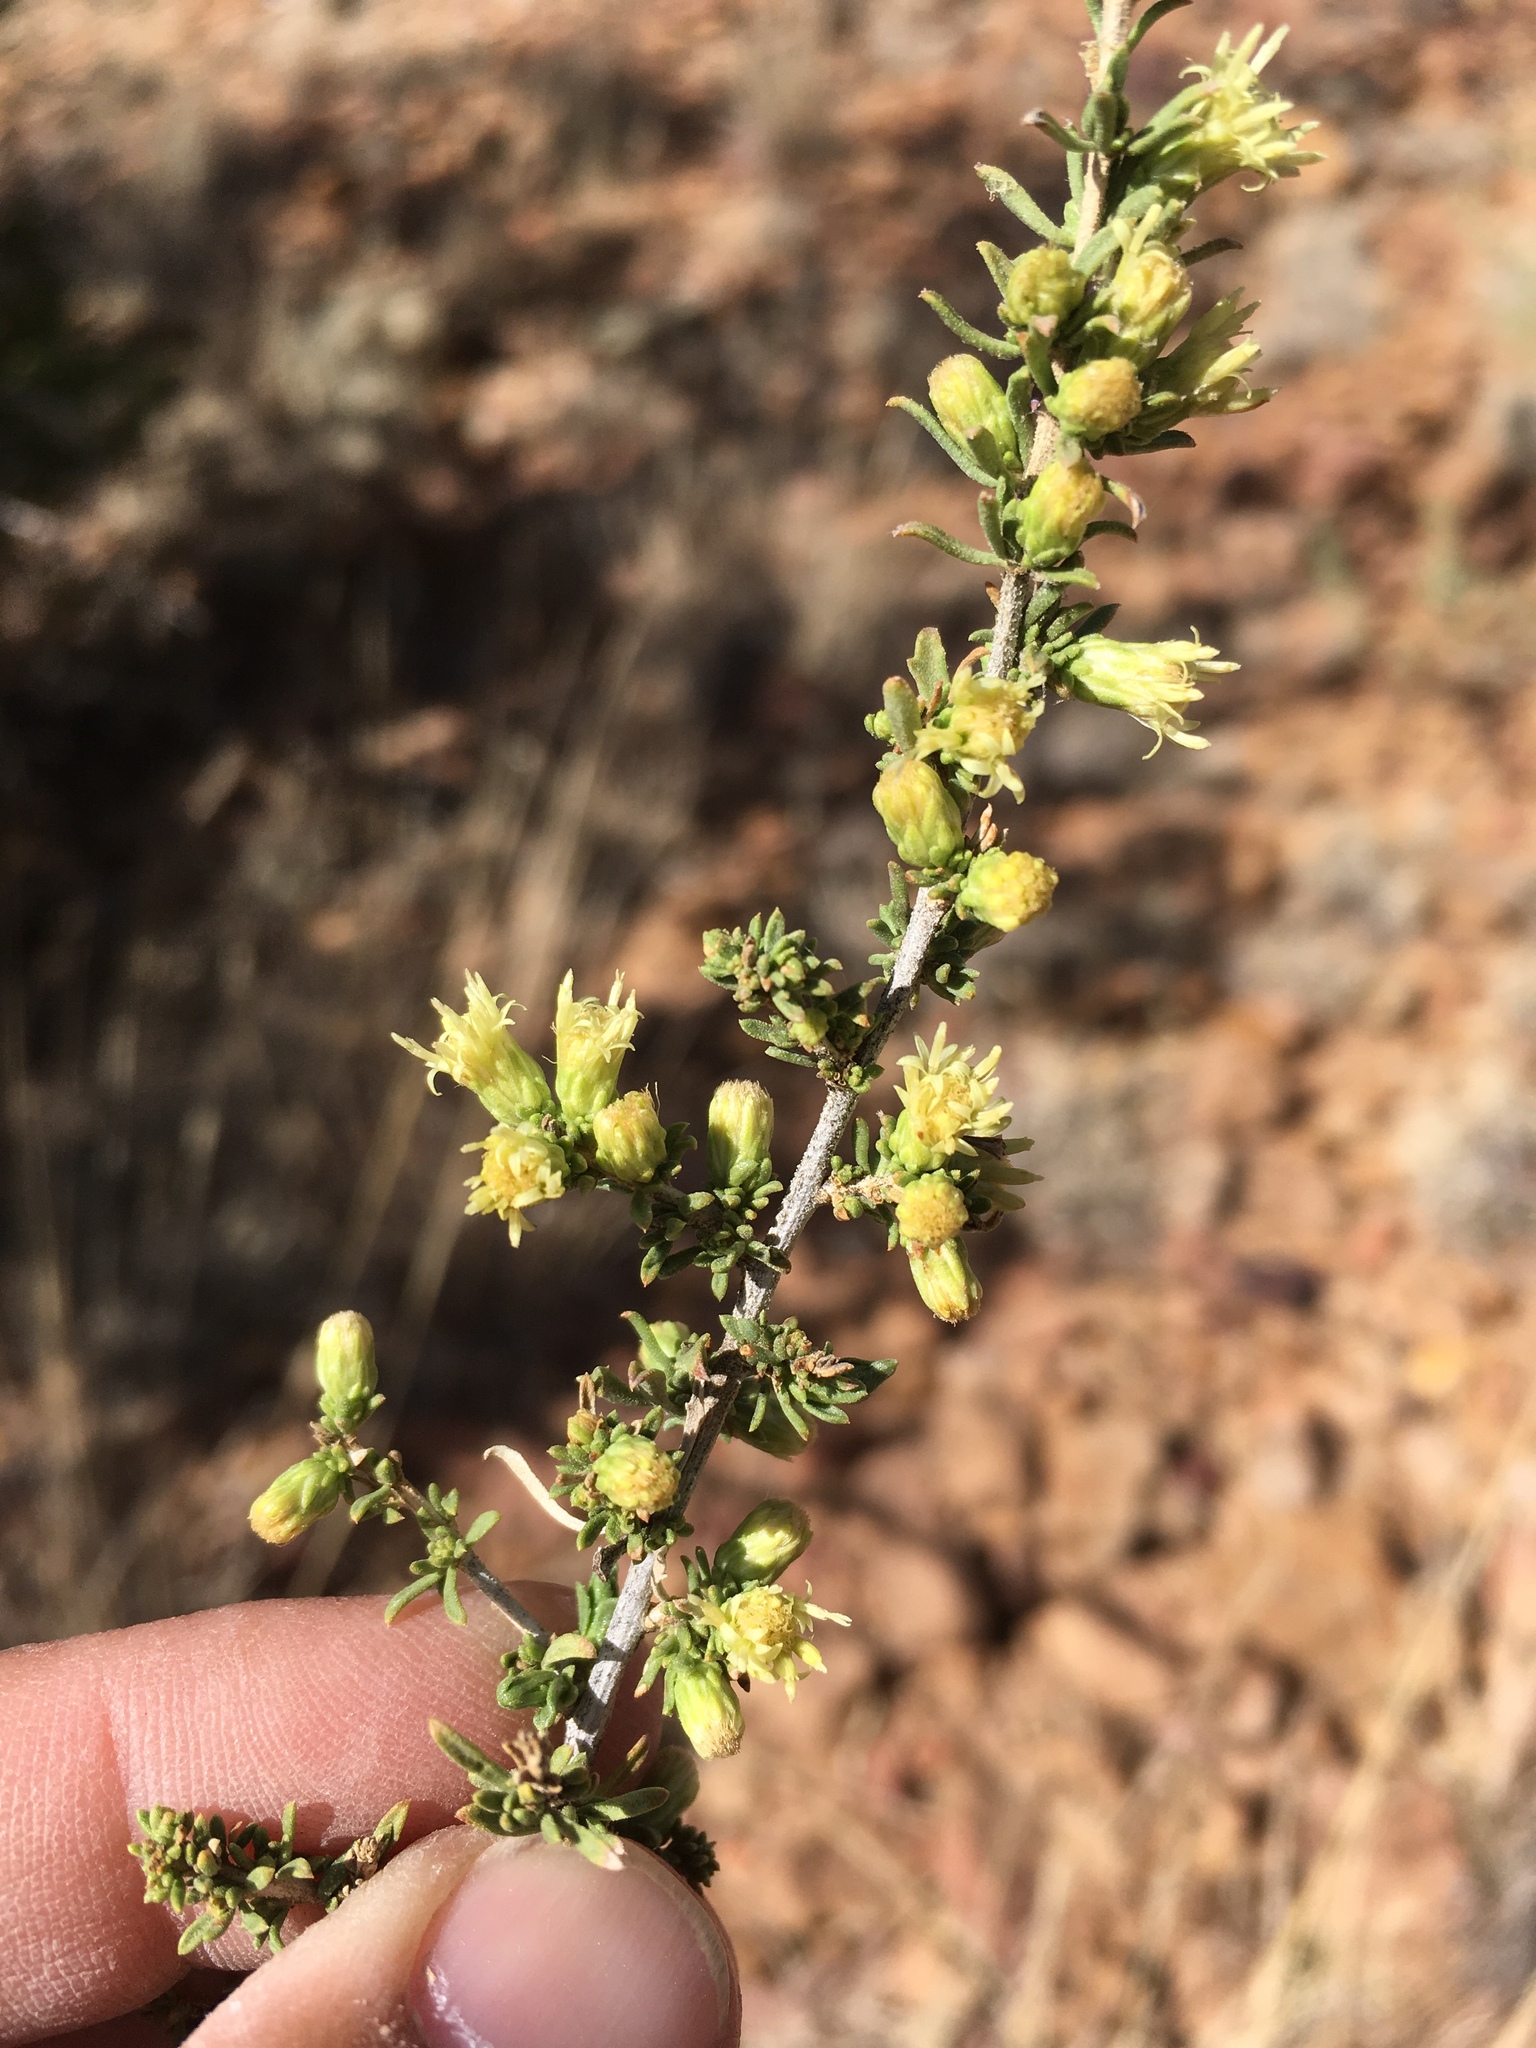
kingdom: Plantae
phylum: Tracheophyta
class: Magnoliopsida
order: Asterales
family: Asteraceae
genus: Baccharis
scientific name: Baccharis pteronioides
